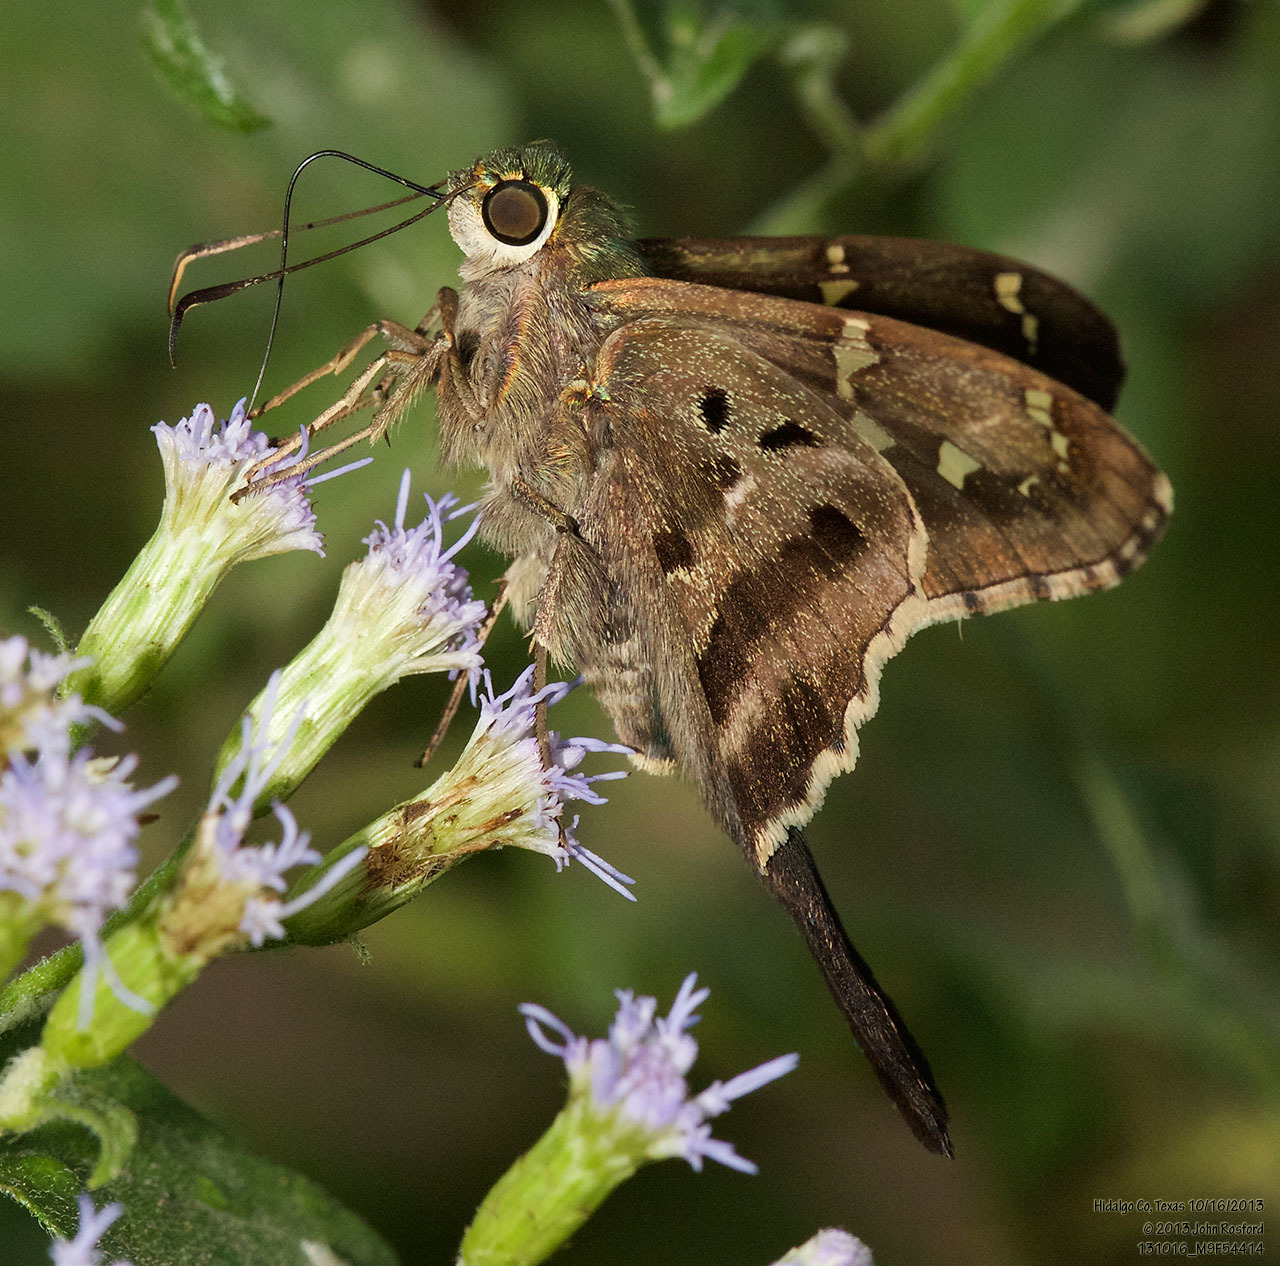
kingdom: Animalia
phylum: Arthropoda
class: Insecta
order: Lepidoptera
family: Hesperiidae
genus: Urbanus
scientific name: Urbanus proteus
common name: Long-tailed skipper
